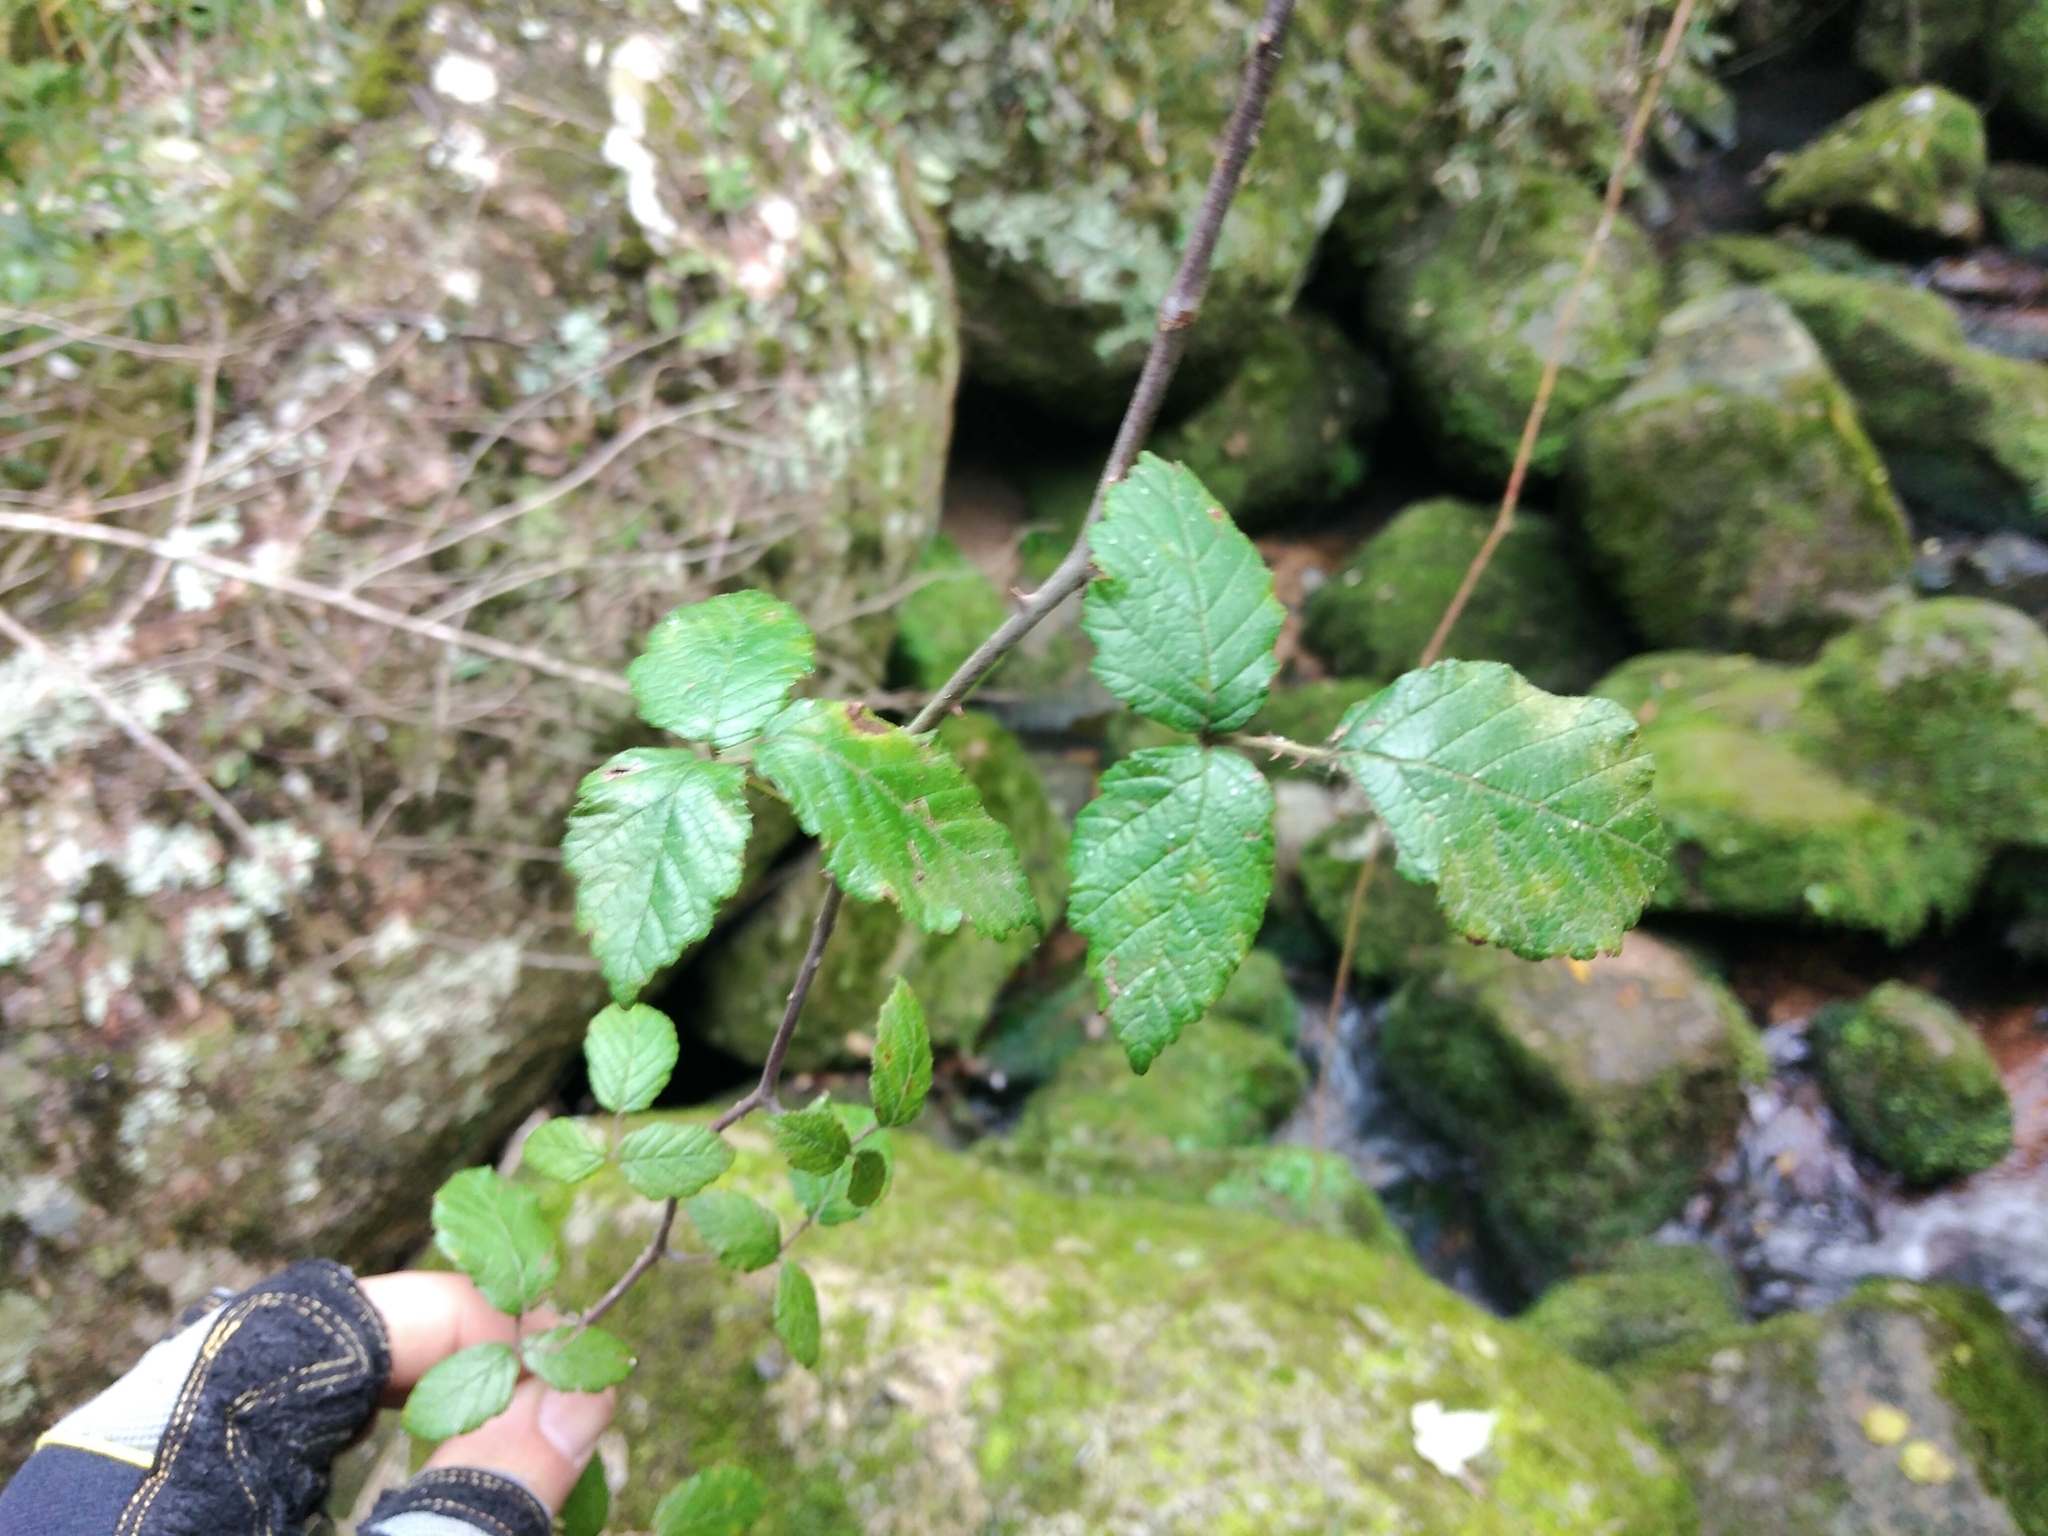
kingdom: Plantae
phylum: Tracheophyta
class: Magnoliopsida
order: Rosales
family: Rosaceae
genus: Rubus
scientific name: Rubus ulmifolius
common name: Elmleaf blackberry
